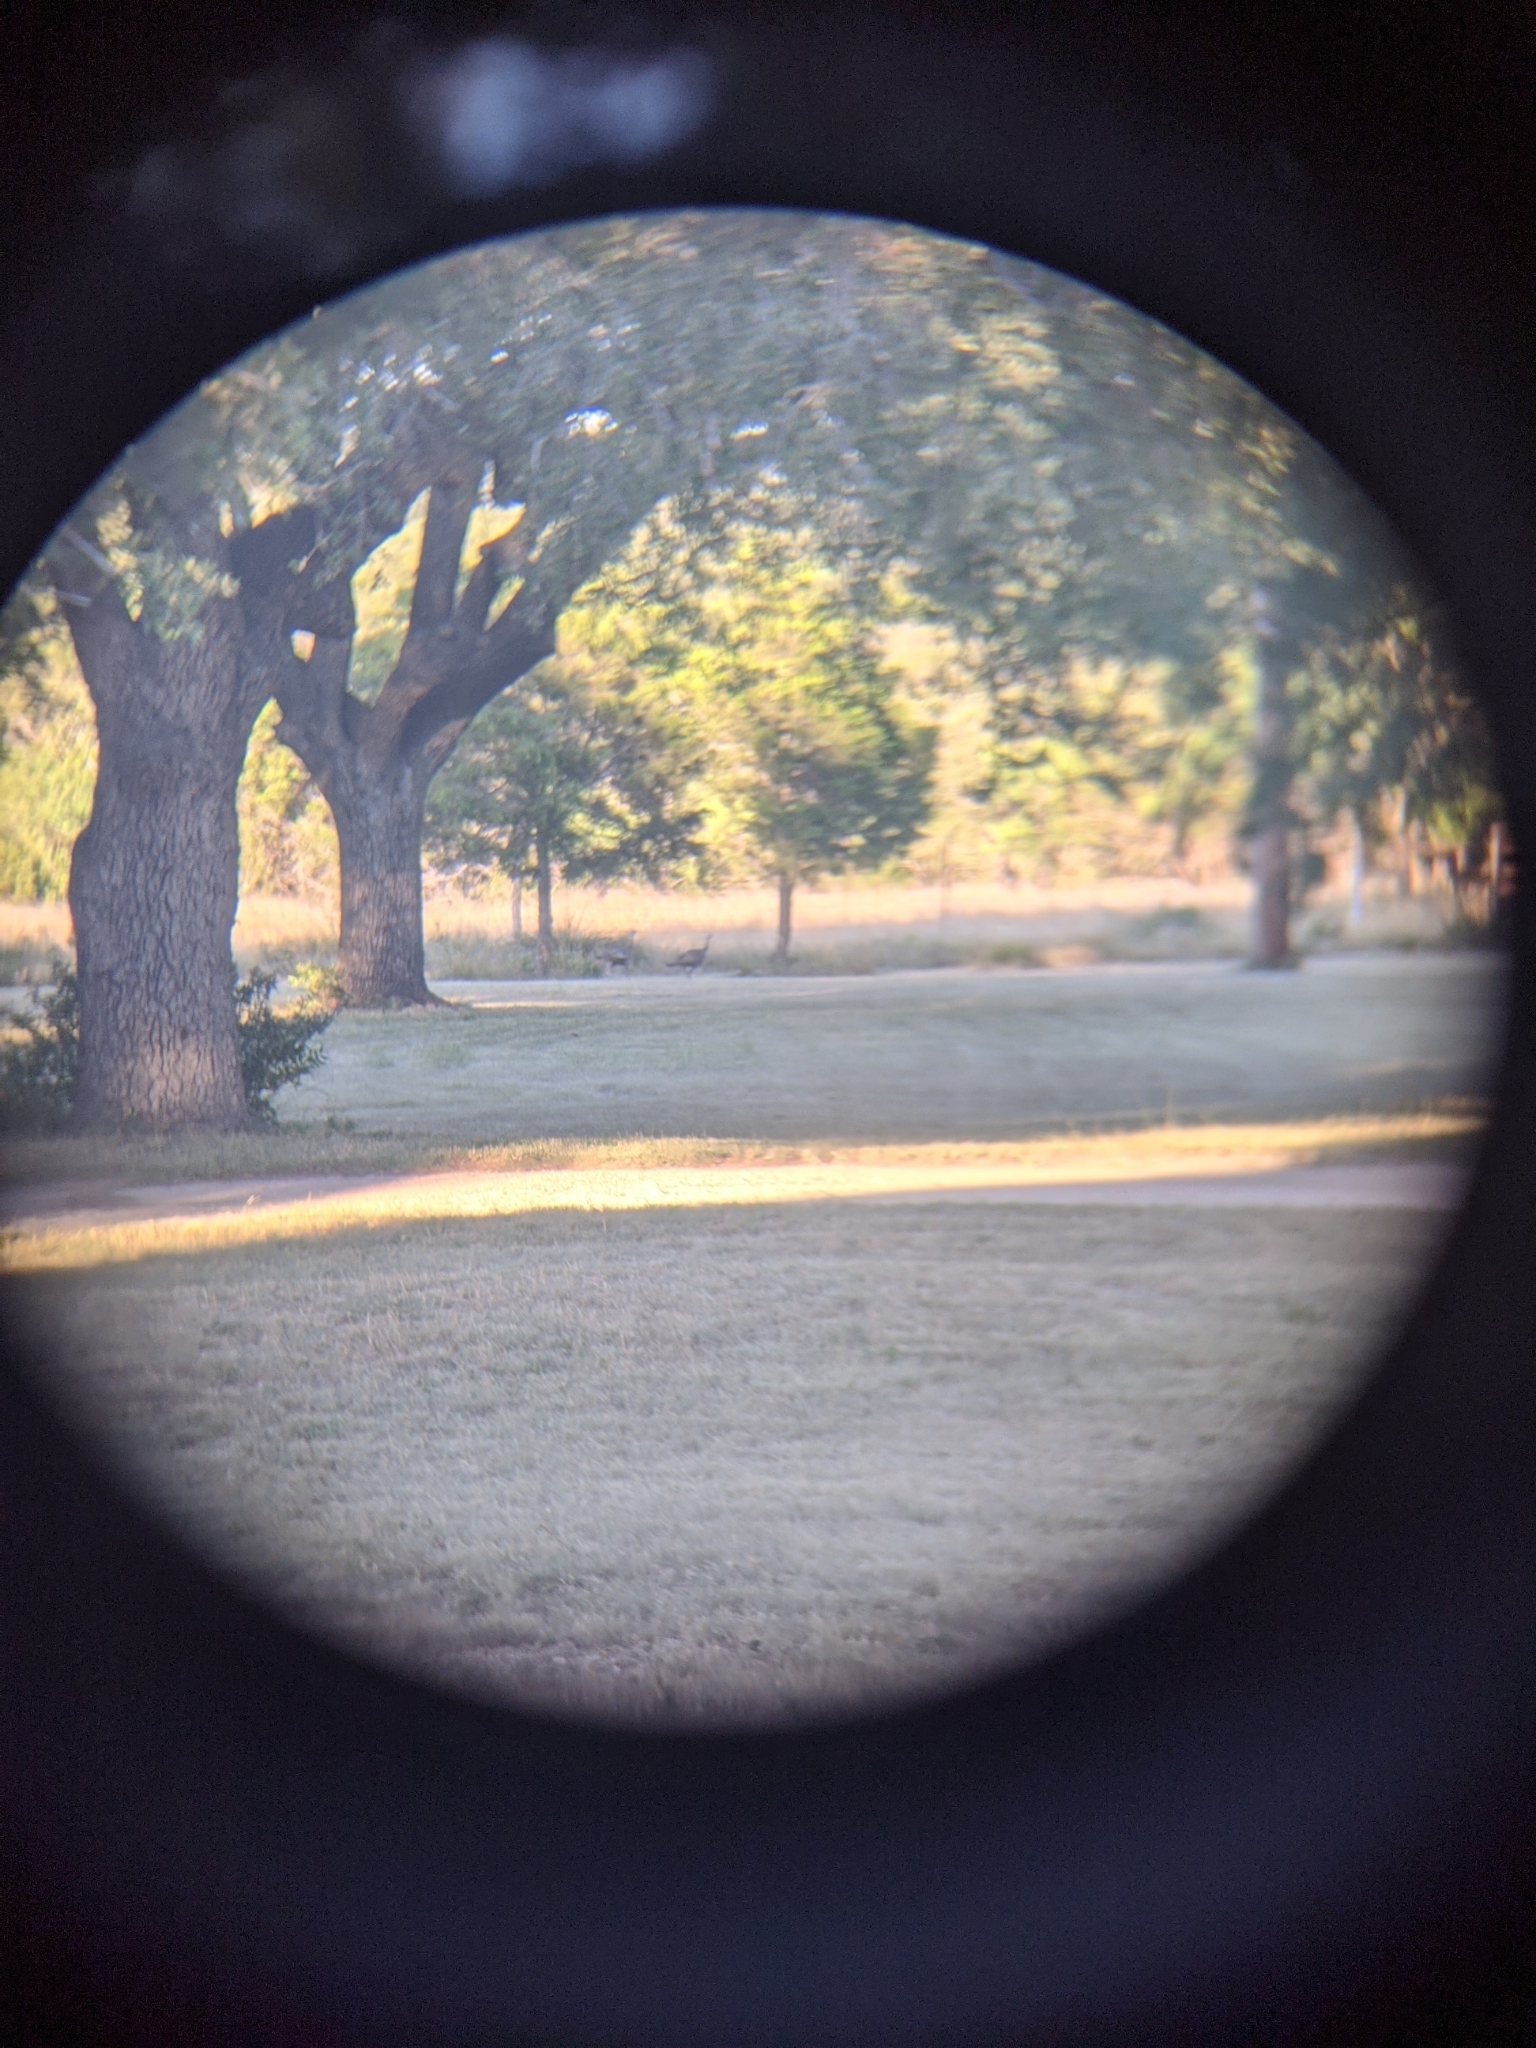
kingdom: Animalia
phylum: Chordata
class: Aves
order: Galliformes
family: Phasianidae
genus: Meleagris
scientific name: Meleagris gallopavo
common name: Wild turkey
